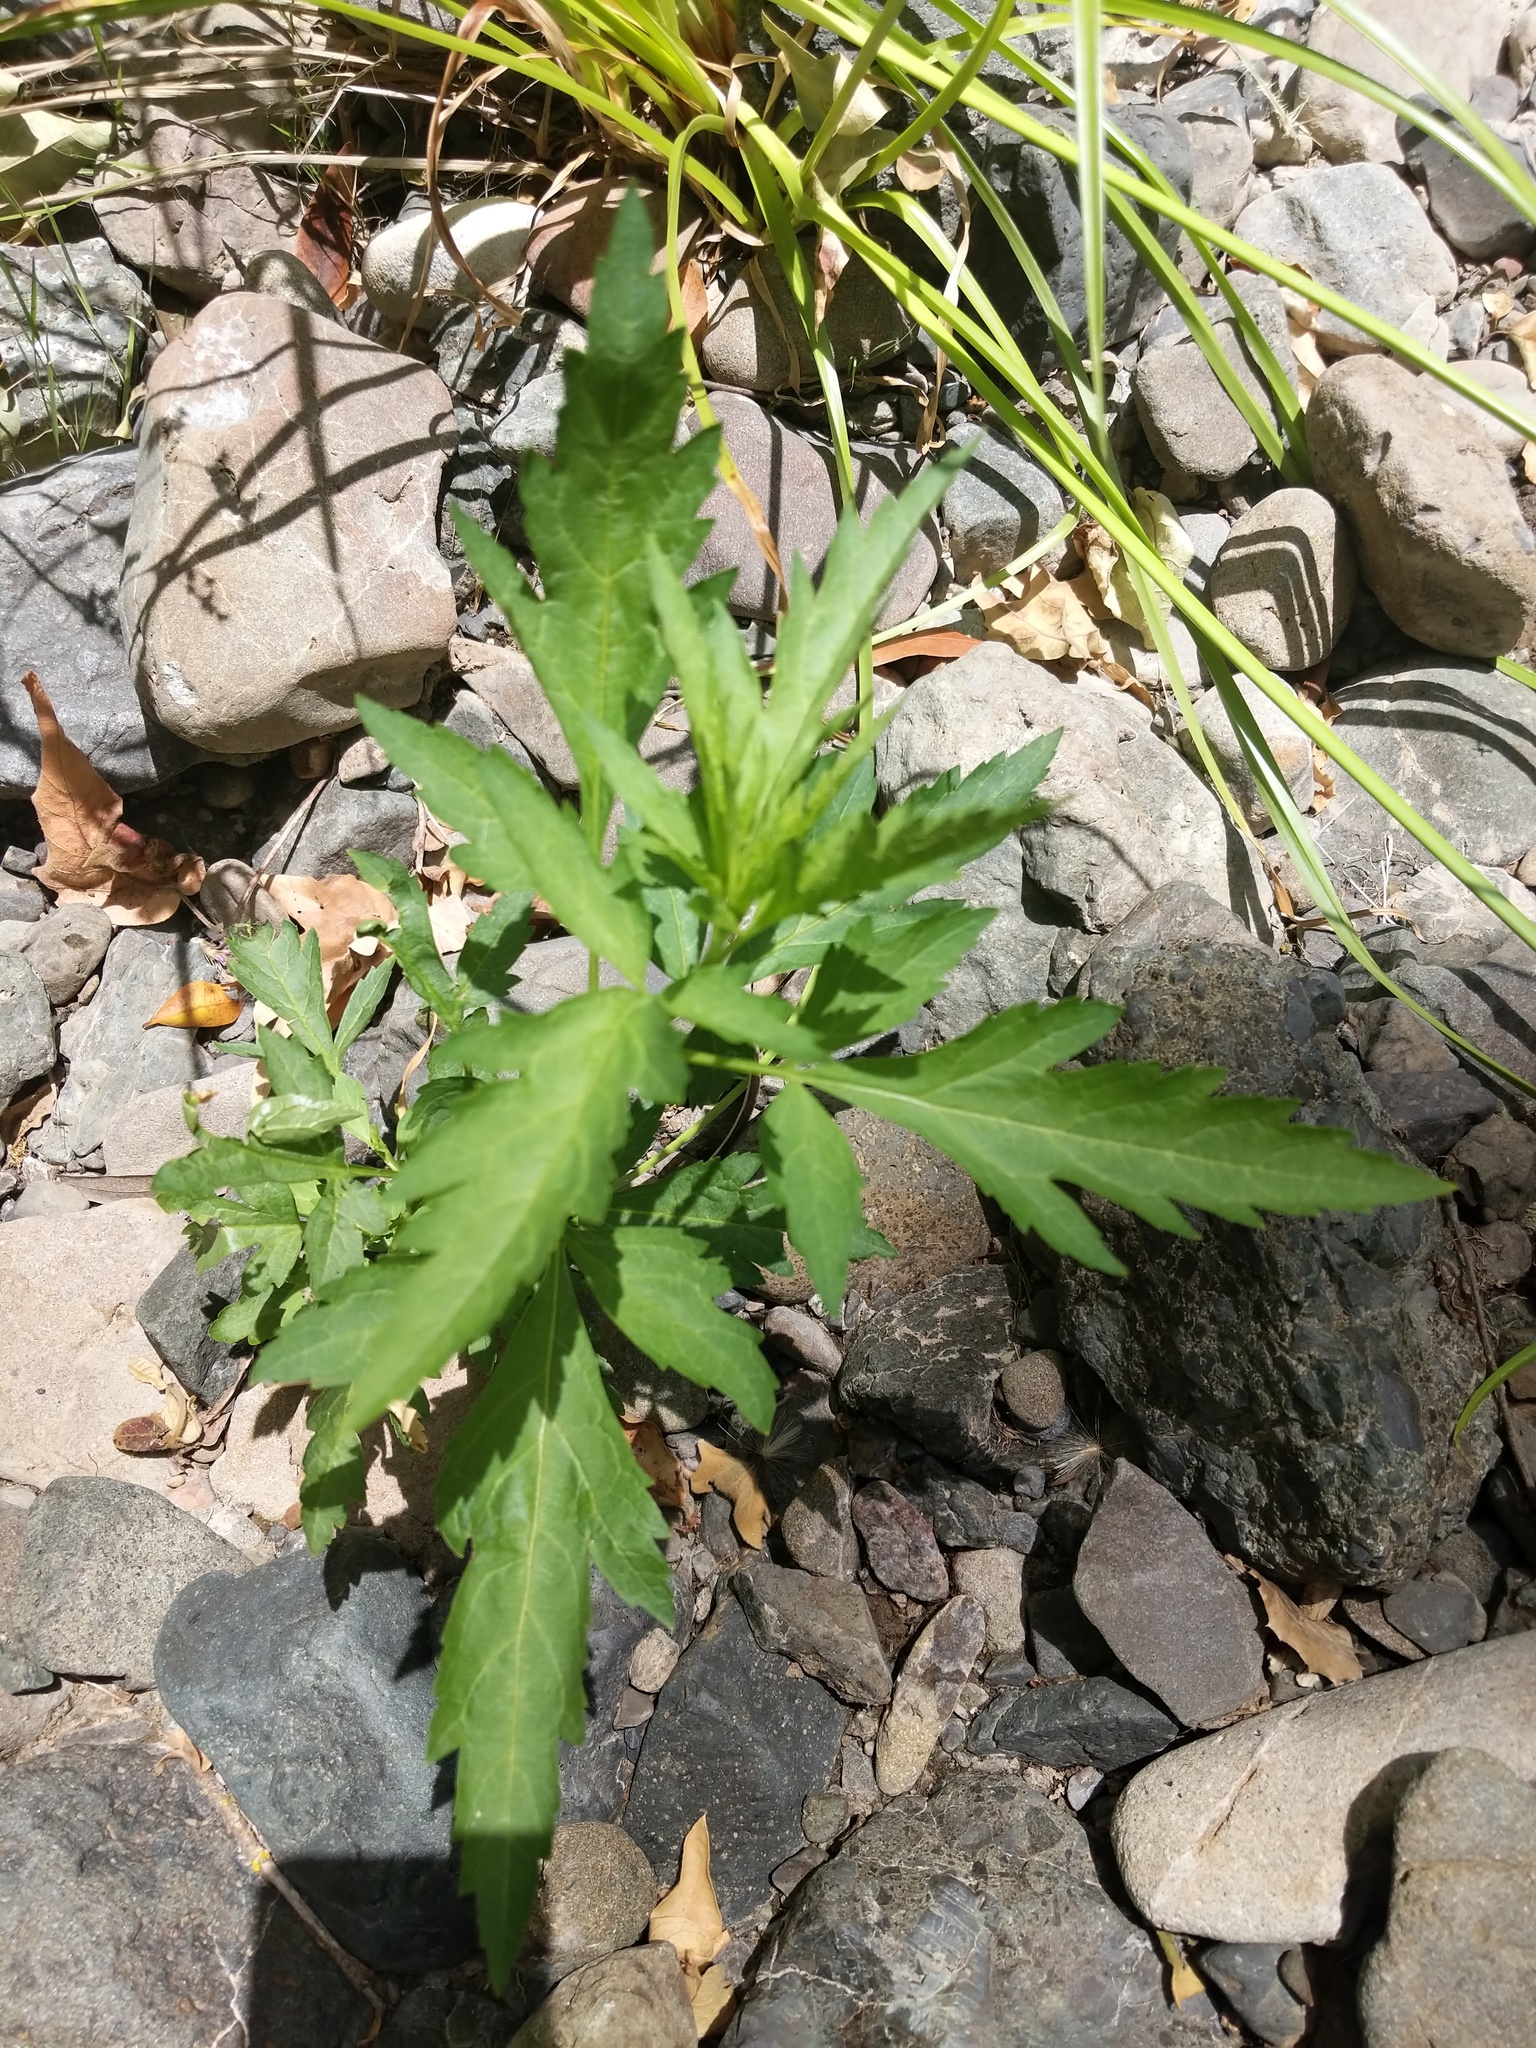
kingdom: Plantae
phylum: Tracheophyta
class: Magnoliopsida
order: Asterales
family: Asteraceae
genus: Artemisia
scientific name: Artemisia douglasiana
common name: Northwest mugwort
